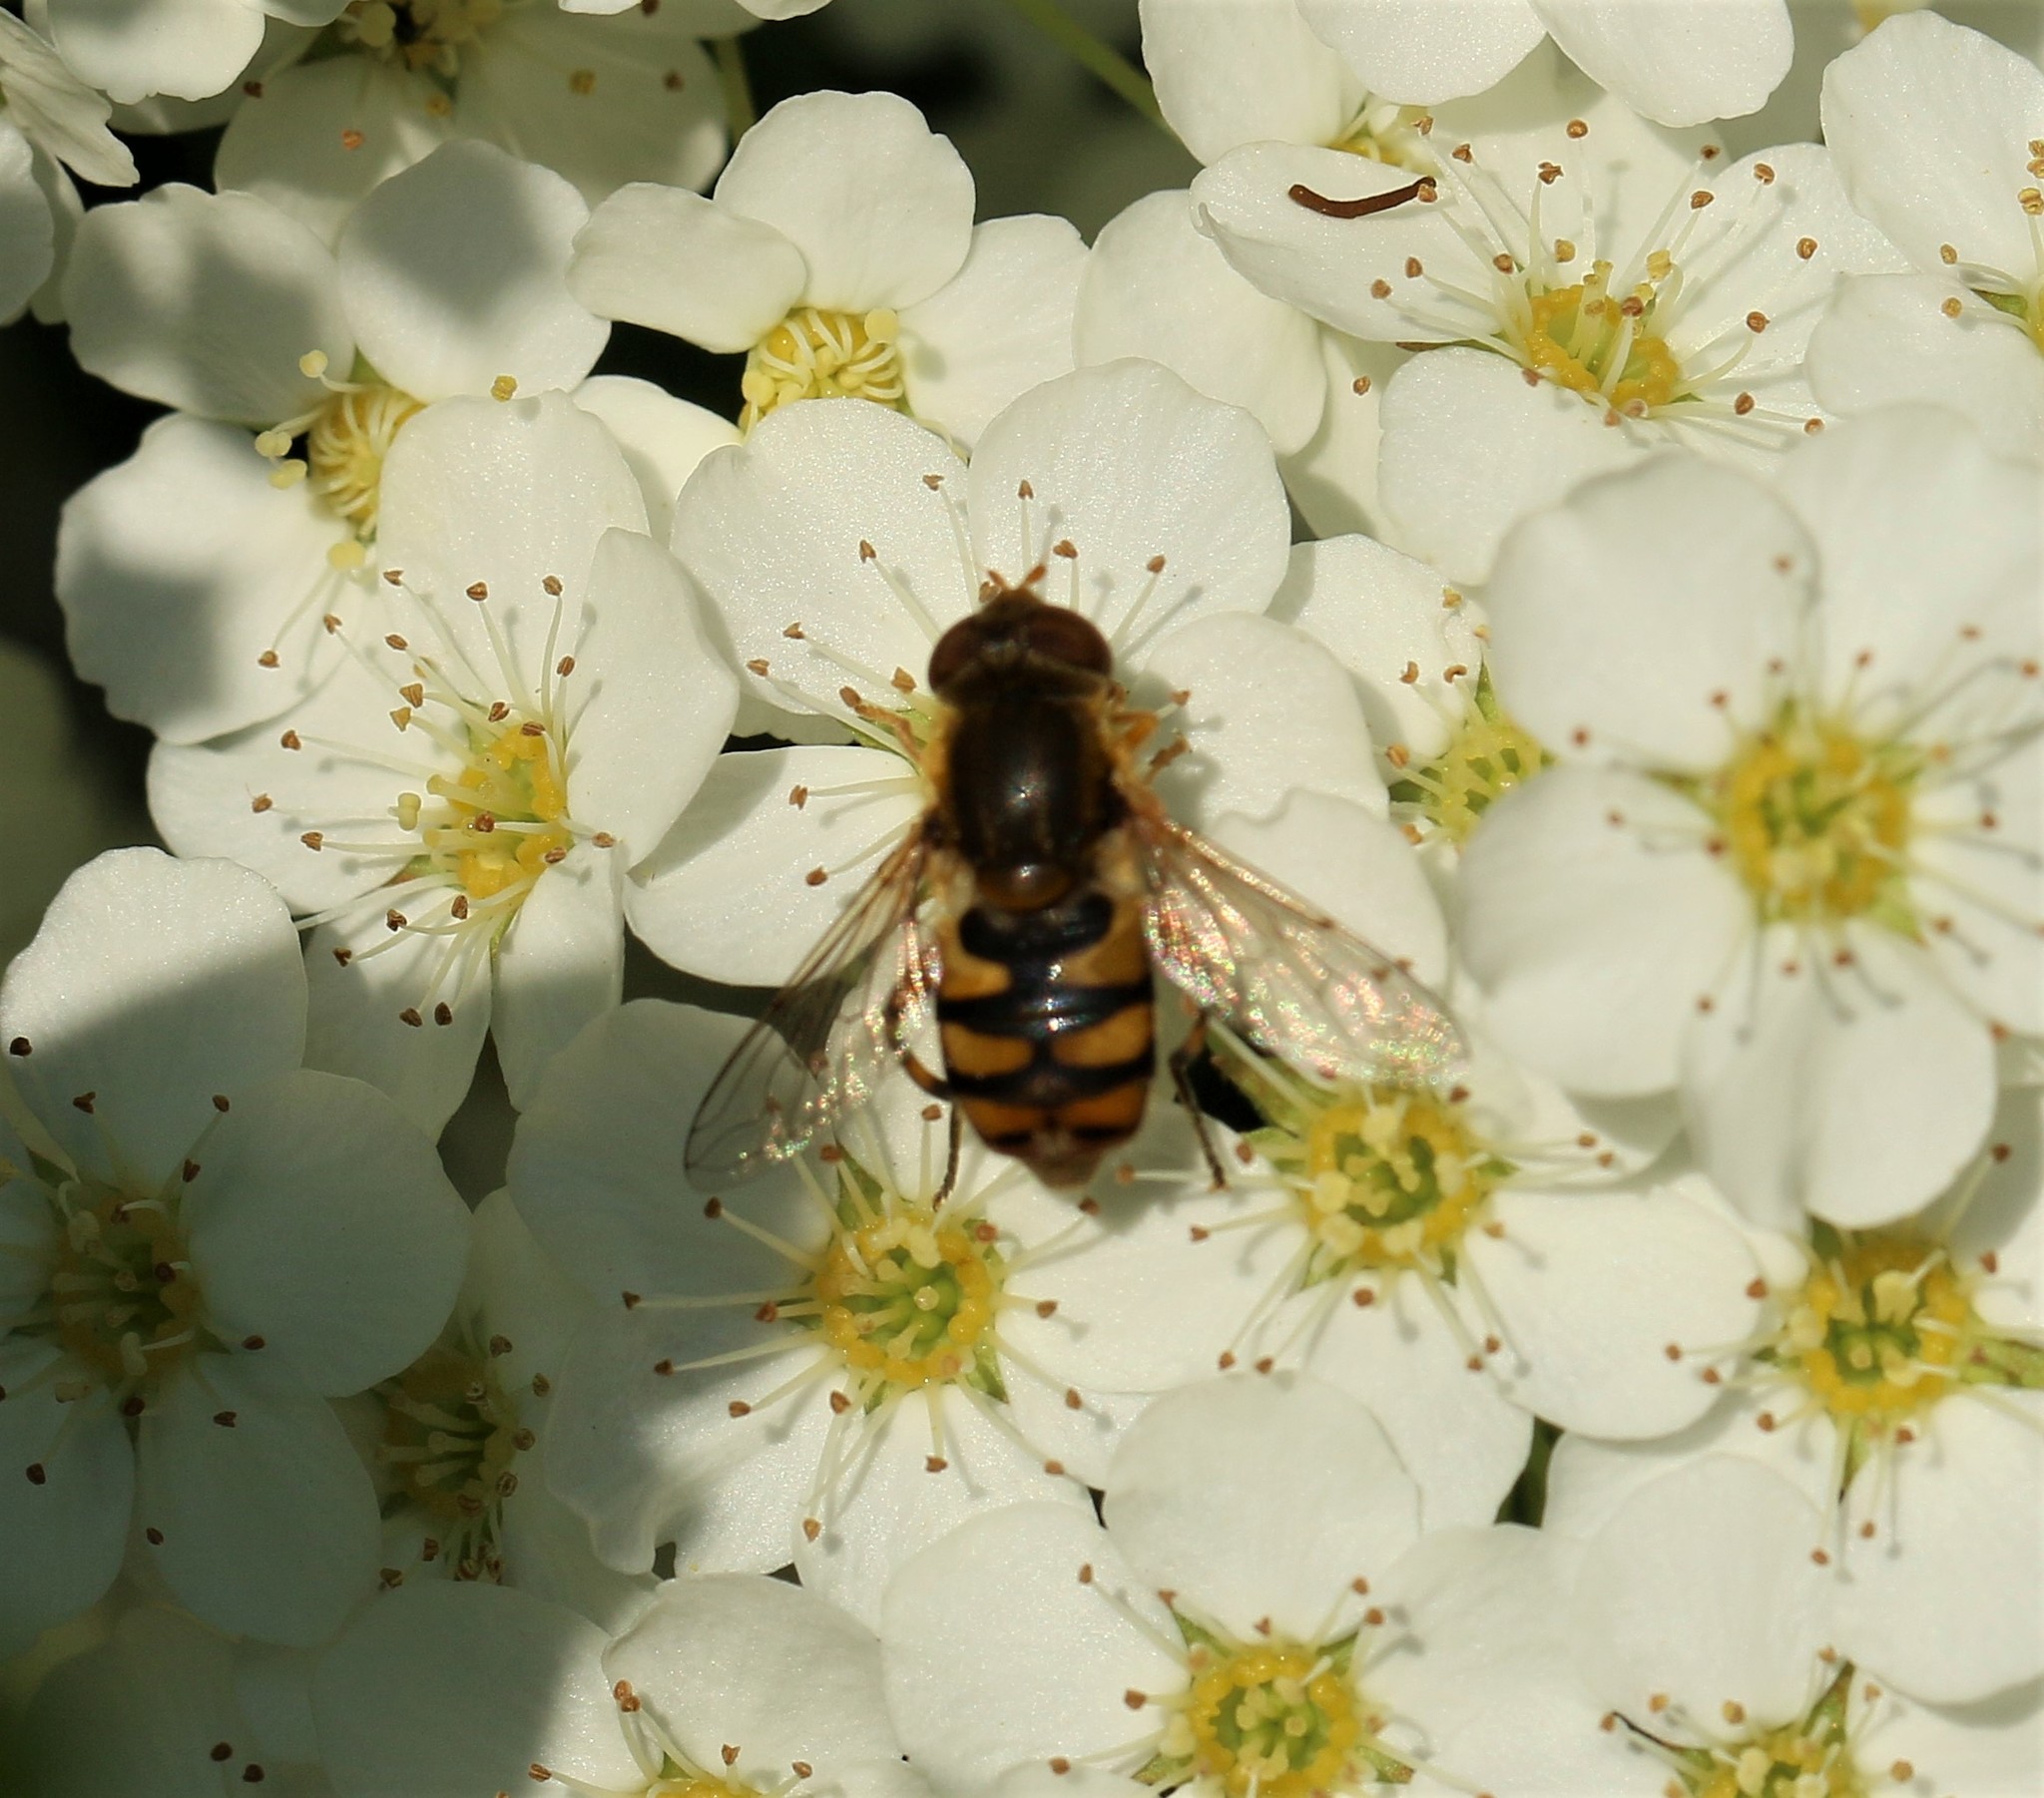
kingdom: Animalia
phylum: Arthropoda
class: Insecta
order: Diptera
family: Syrphidae
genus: Parhelophilus
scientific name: Parhelophilus obsoletus
